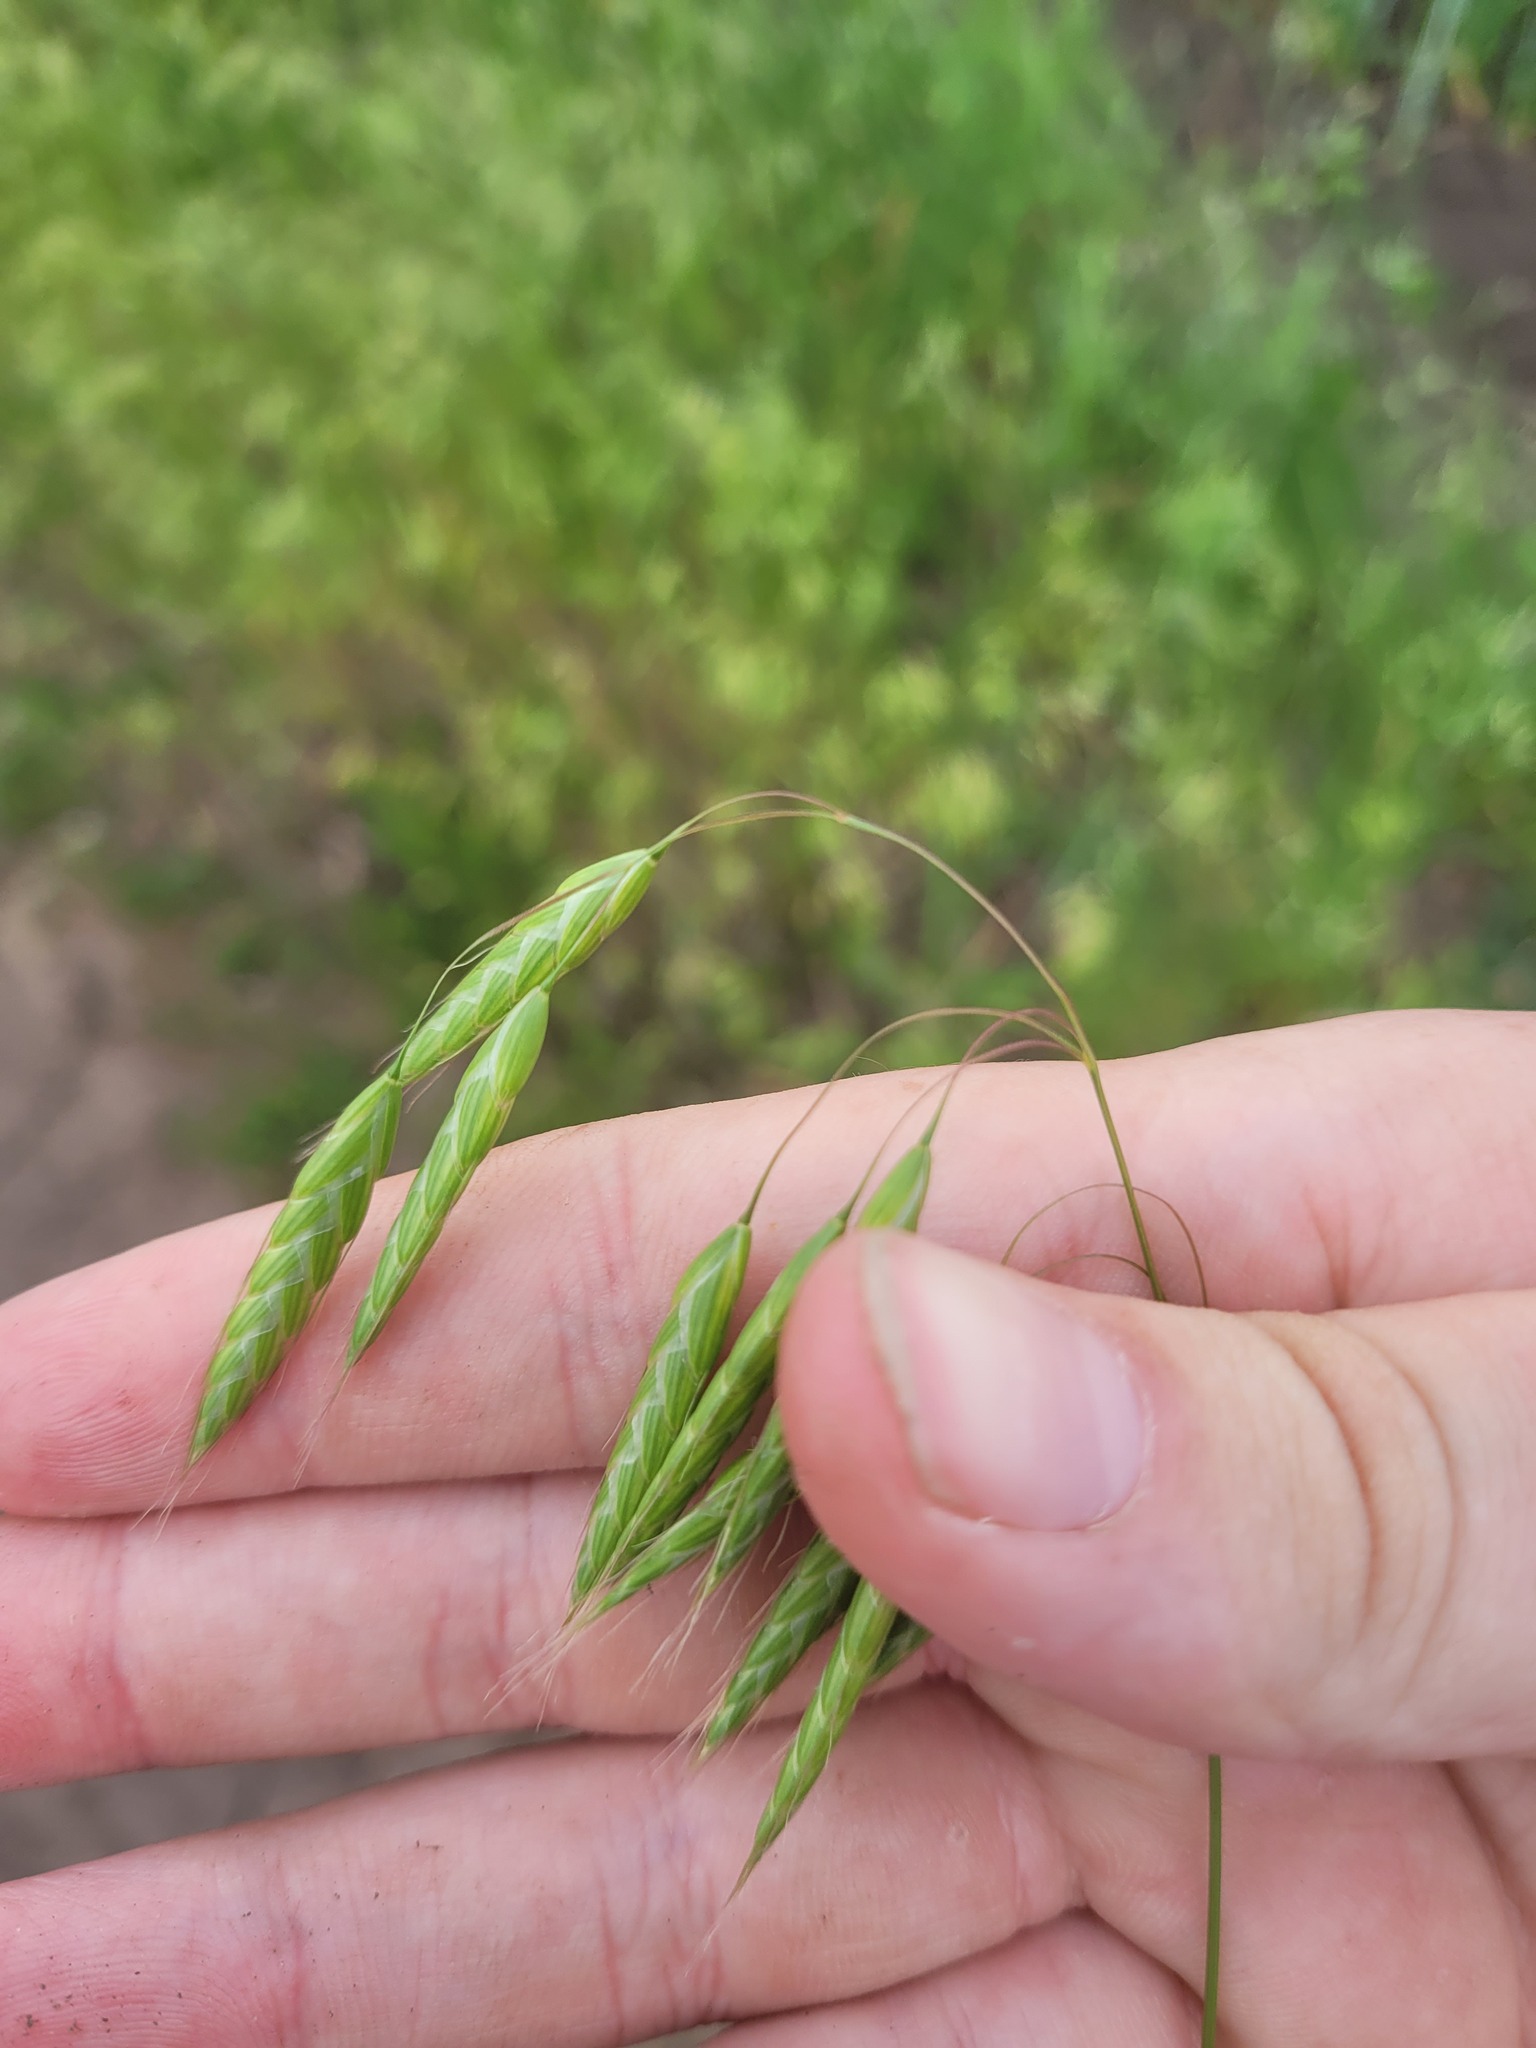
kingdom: Plantae
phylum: Tracheophyta
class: Liliopsida
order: Poales
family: Poaceae
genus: Bromus
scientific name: Bromus squarrosus
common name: Corn brome
